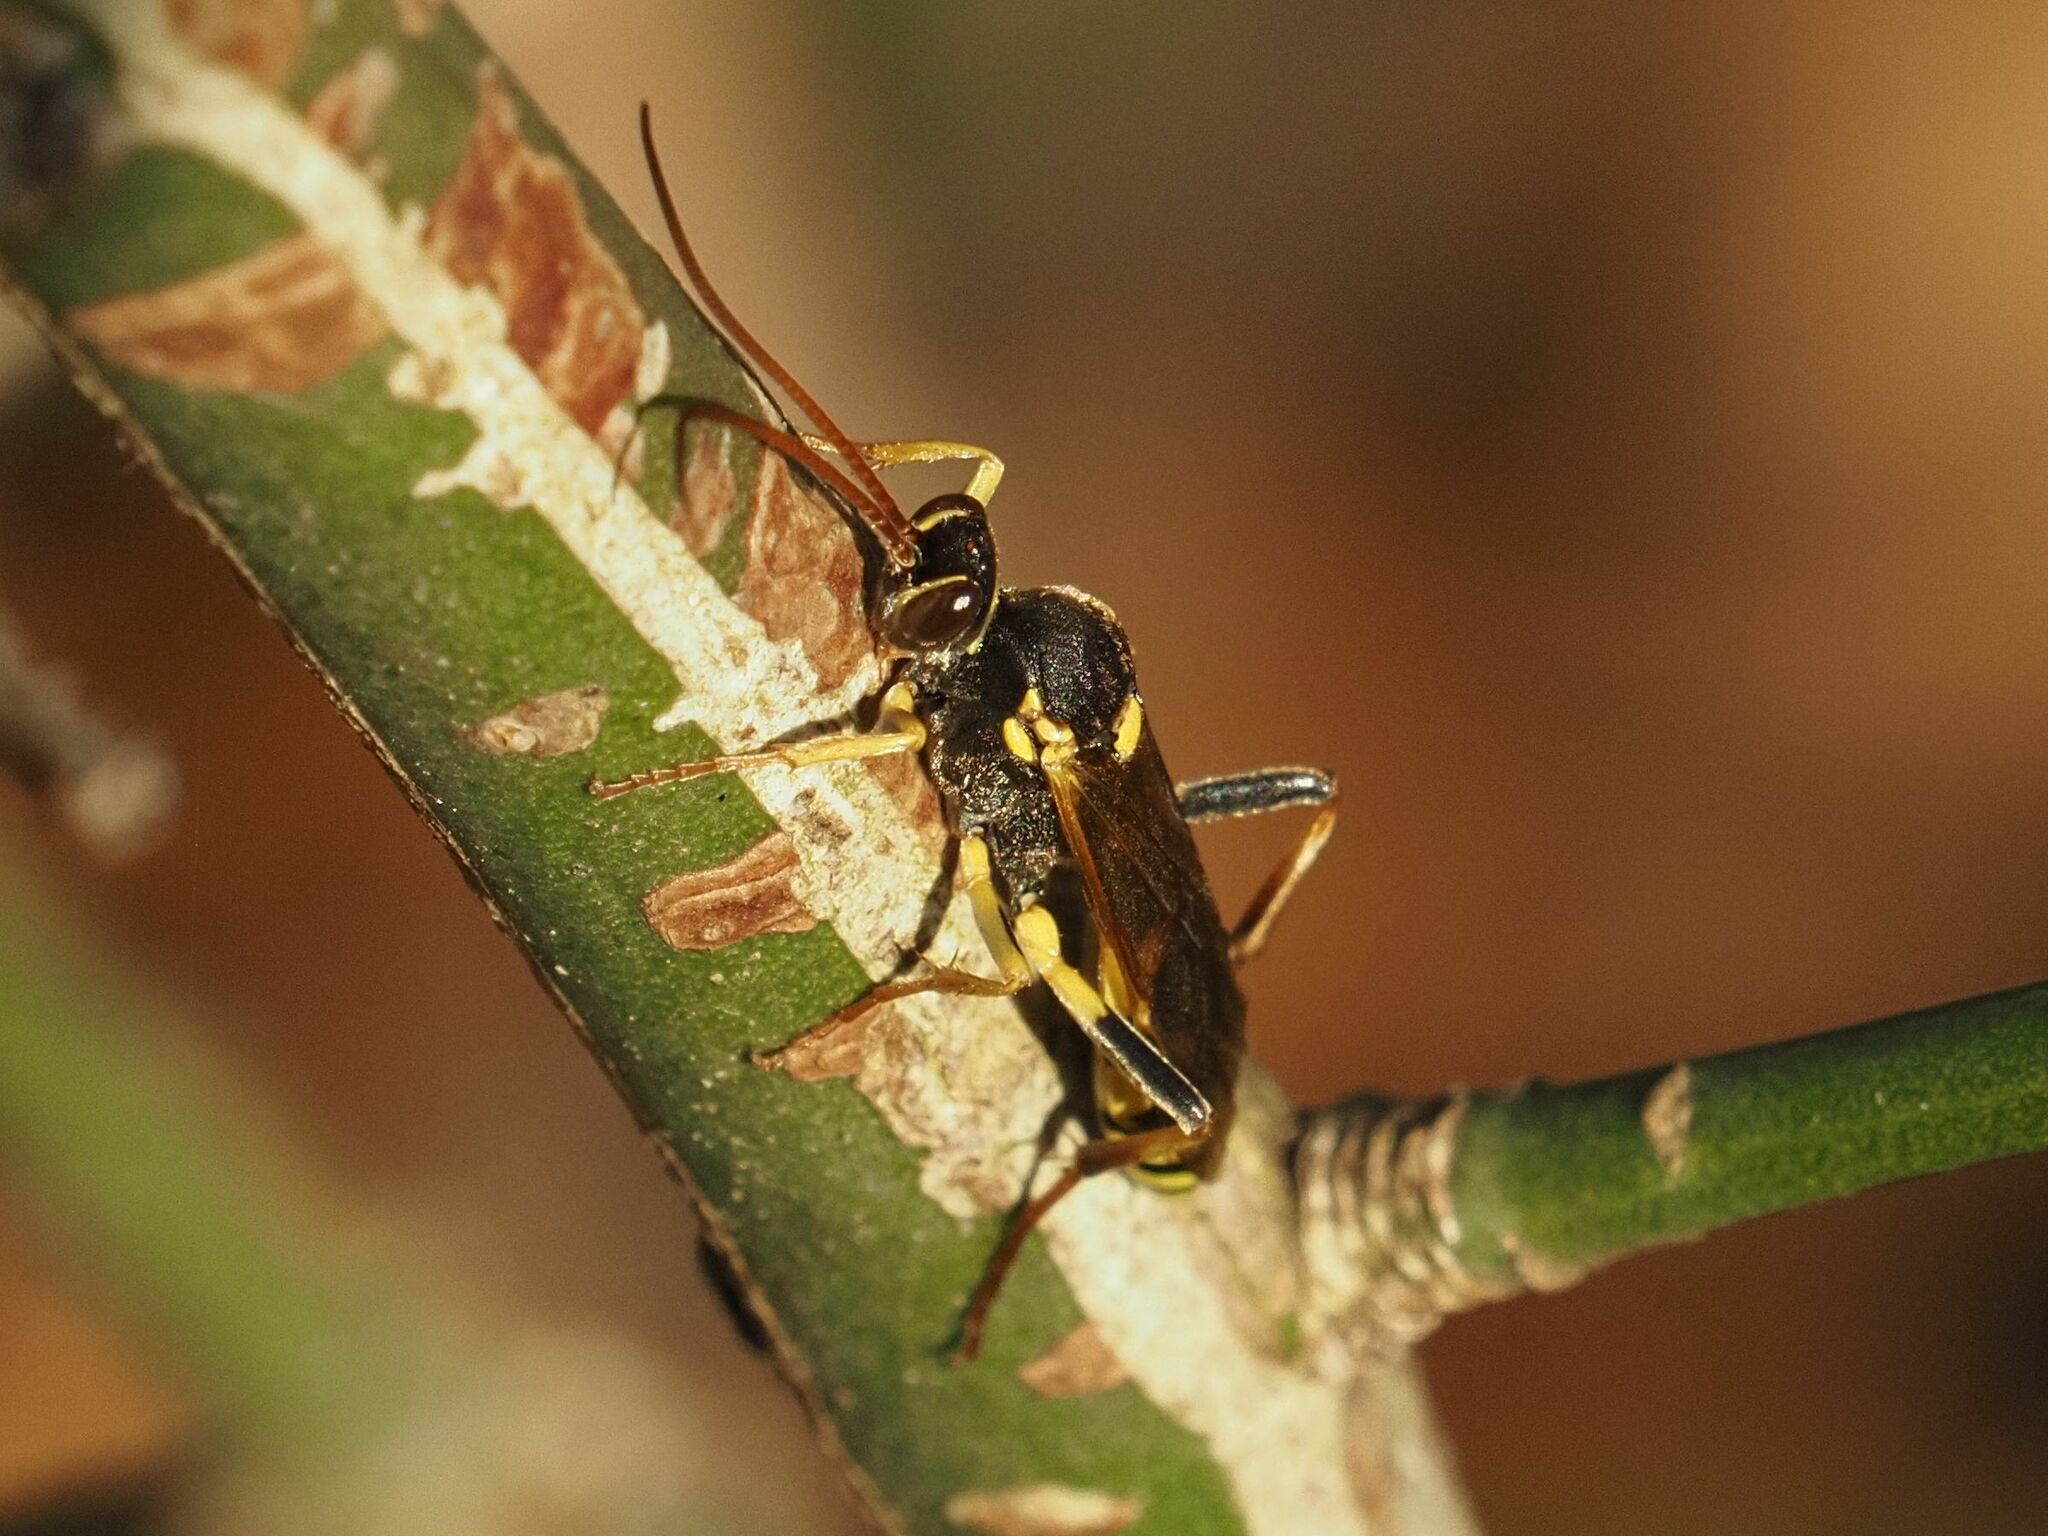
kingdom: Animalia
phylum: Arthropoda
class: Insecta
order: Hymenoptera
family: Ichneumonidae
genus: Amblyteles
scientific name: Amblyteles armatorius
